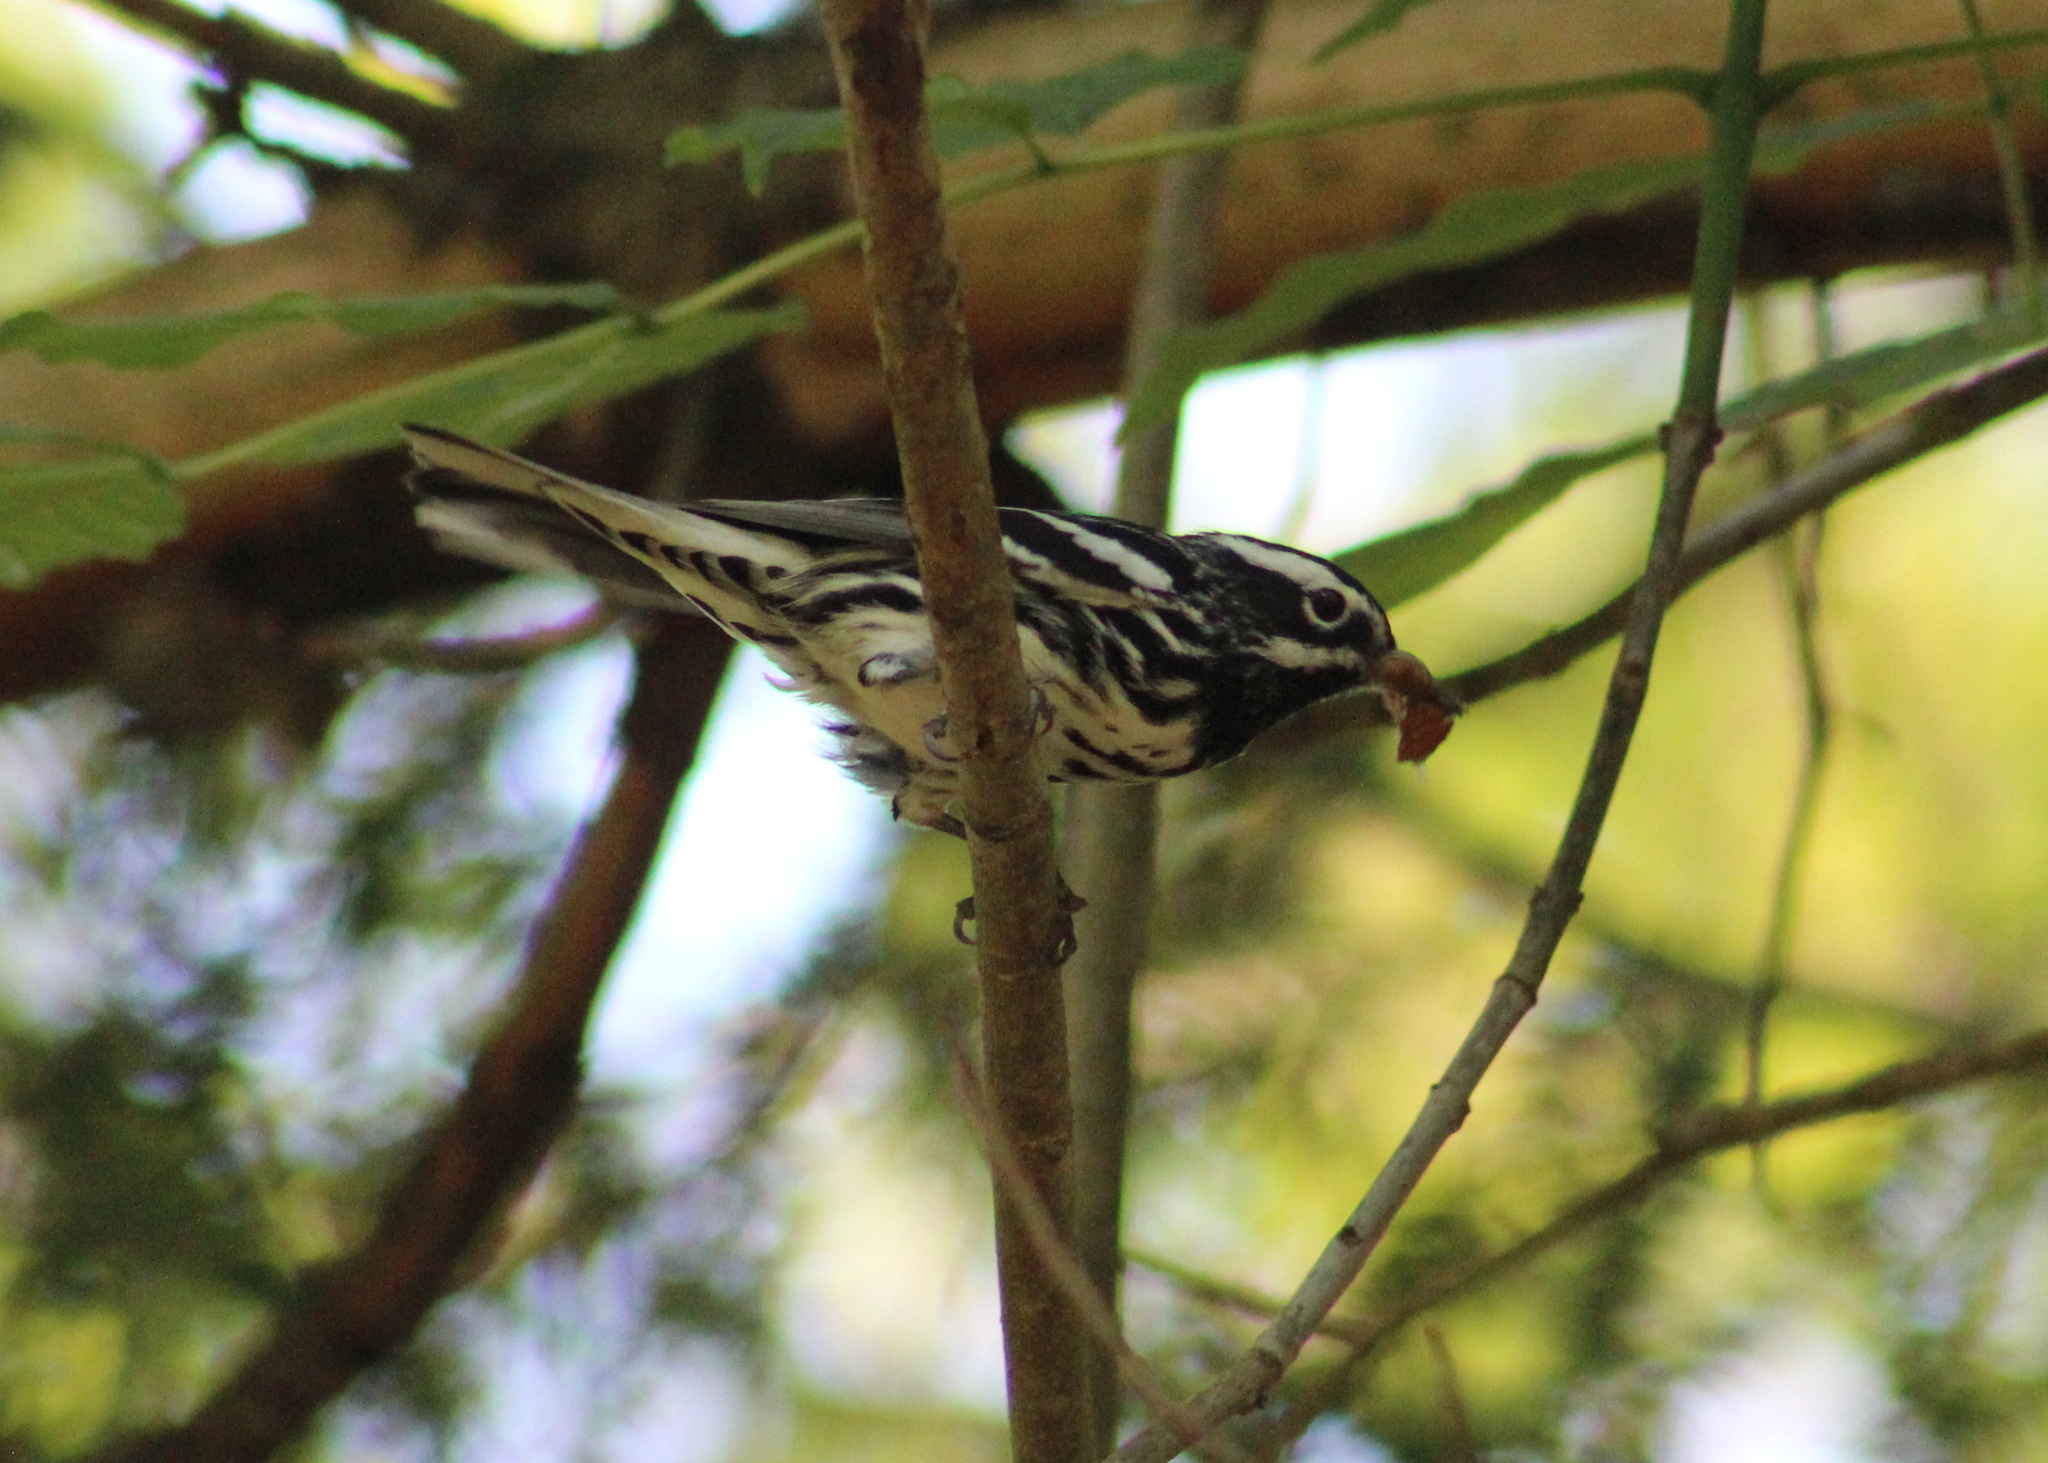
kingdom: Animalia
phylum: Chordata
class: Aves
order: Passeriformes
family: Parulidae
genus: Mniotilta
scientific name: Mniotilta varia
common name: Black-and-white warbler
